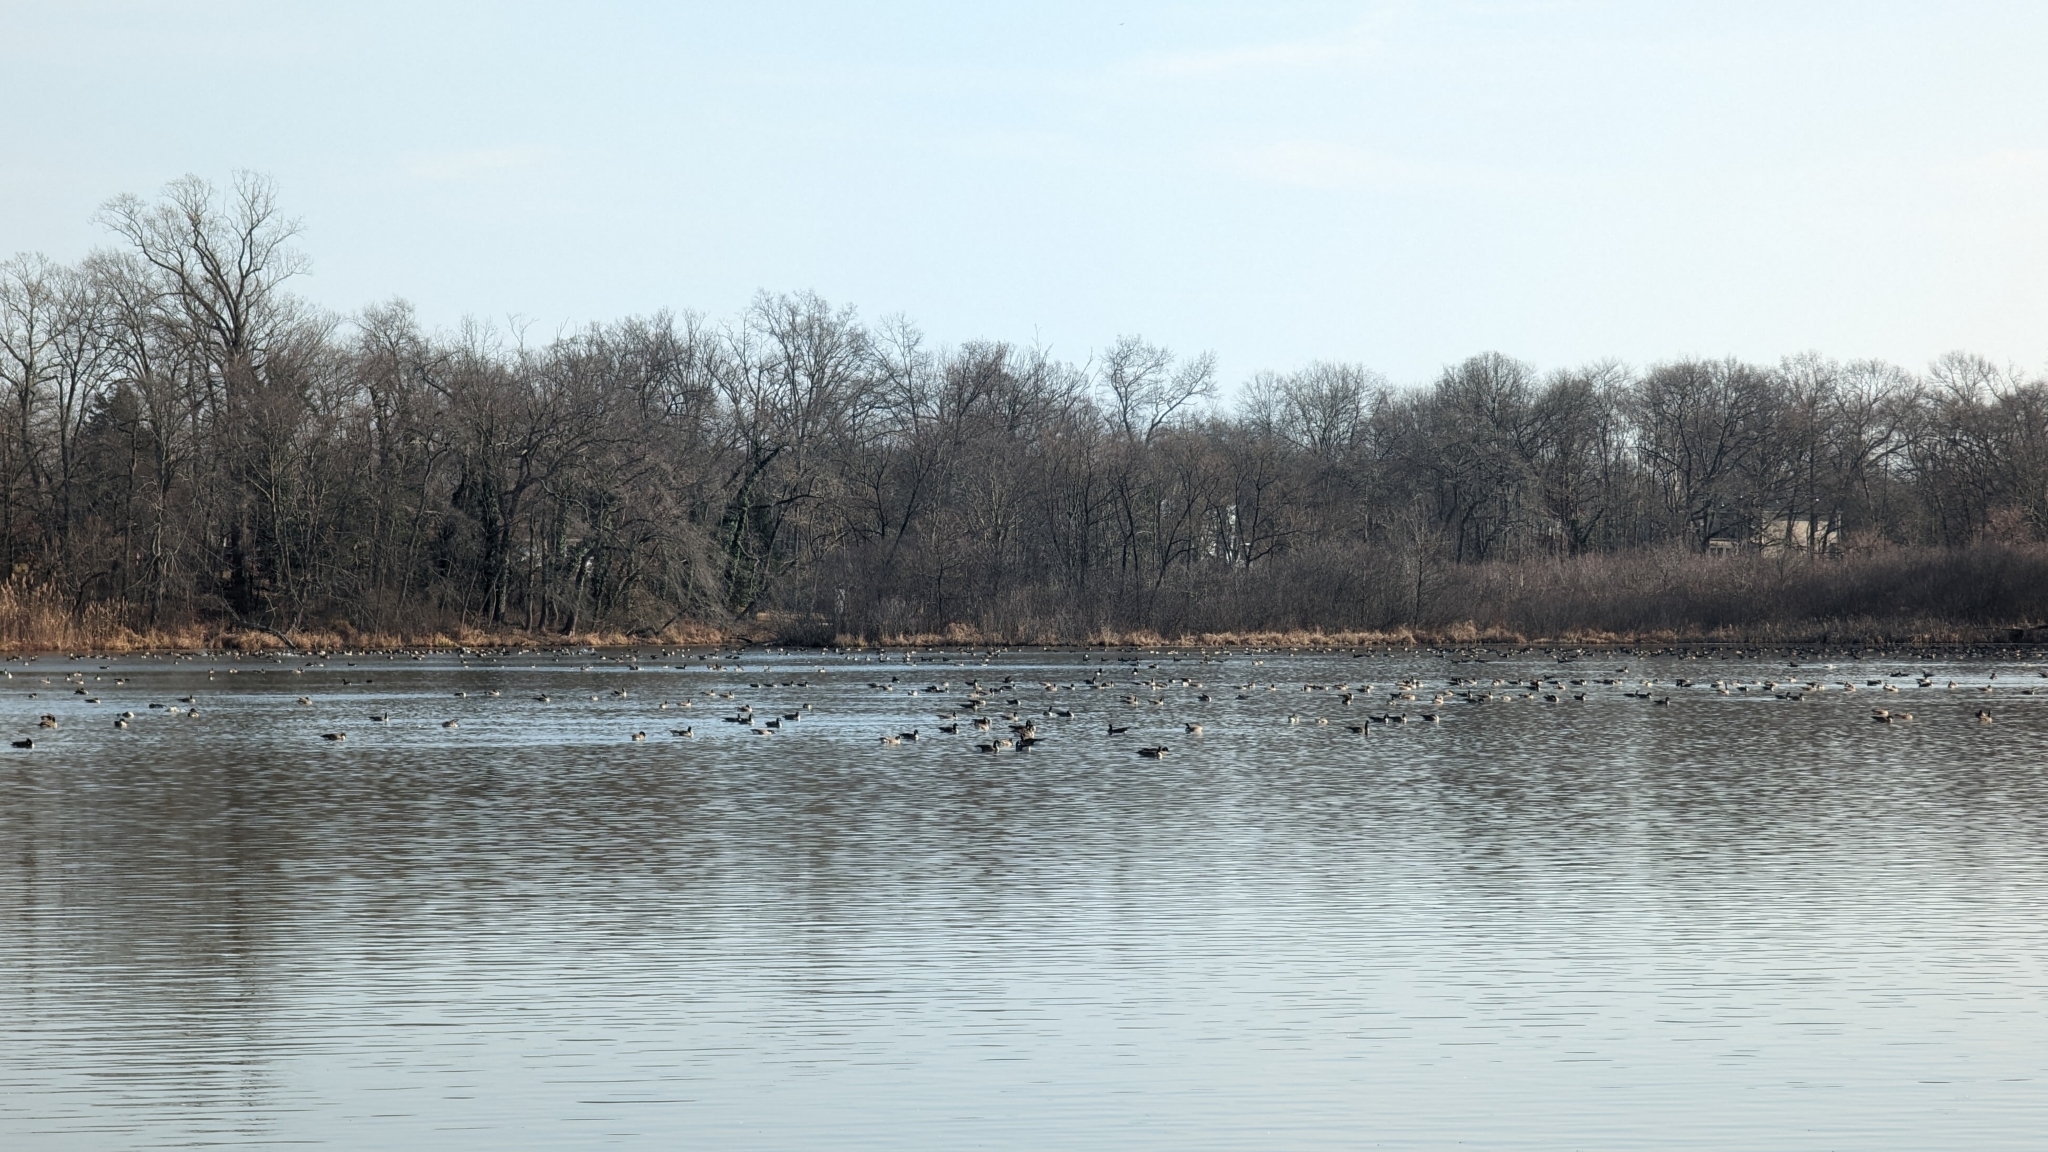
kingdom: Animalia
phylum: Chordata
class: Aves
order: Anseriformes
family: Anatidae
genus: Branta
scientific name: Branta canadensis
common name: Canada goose
